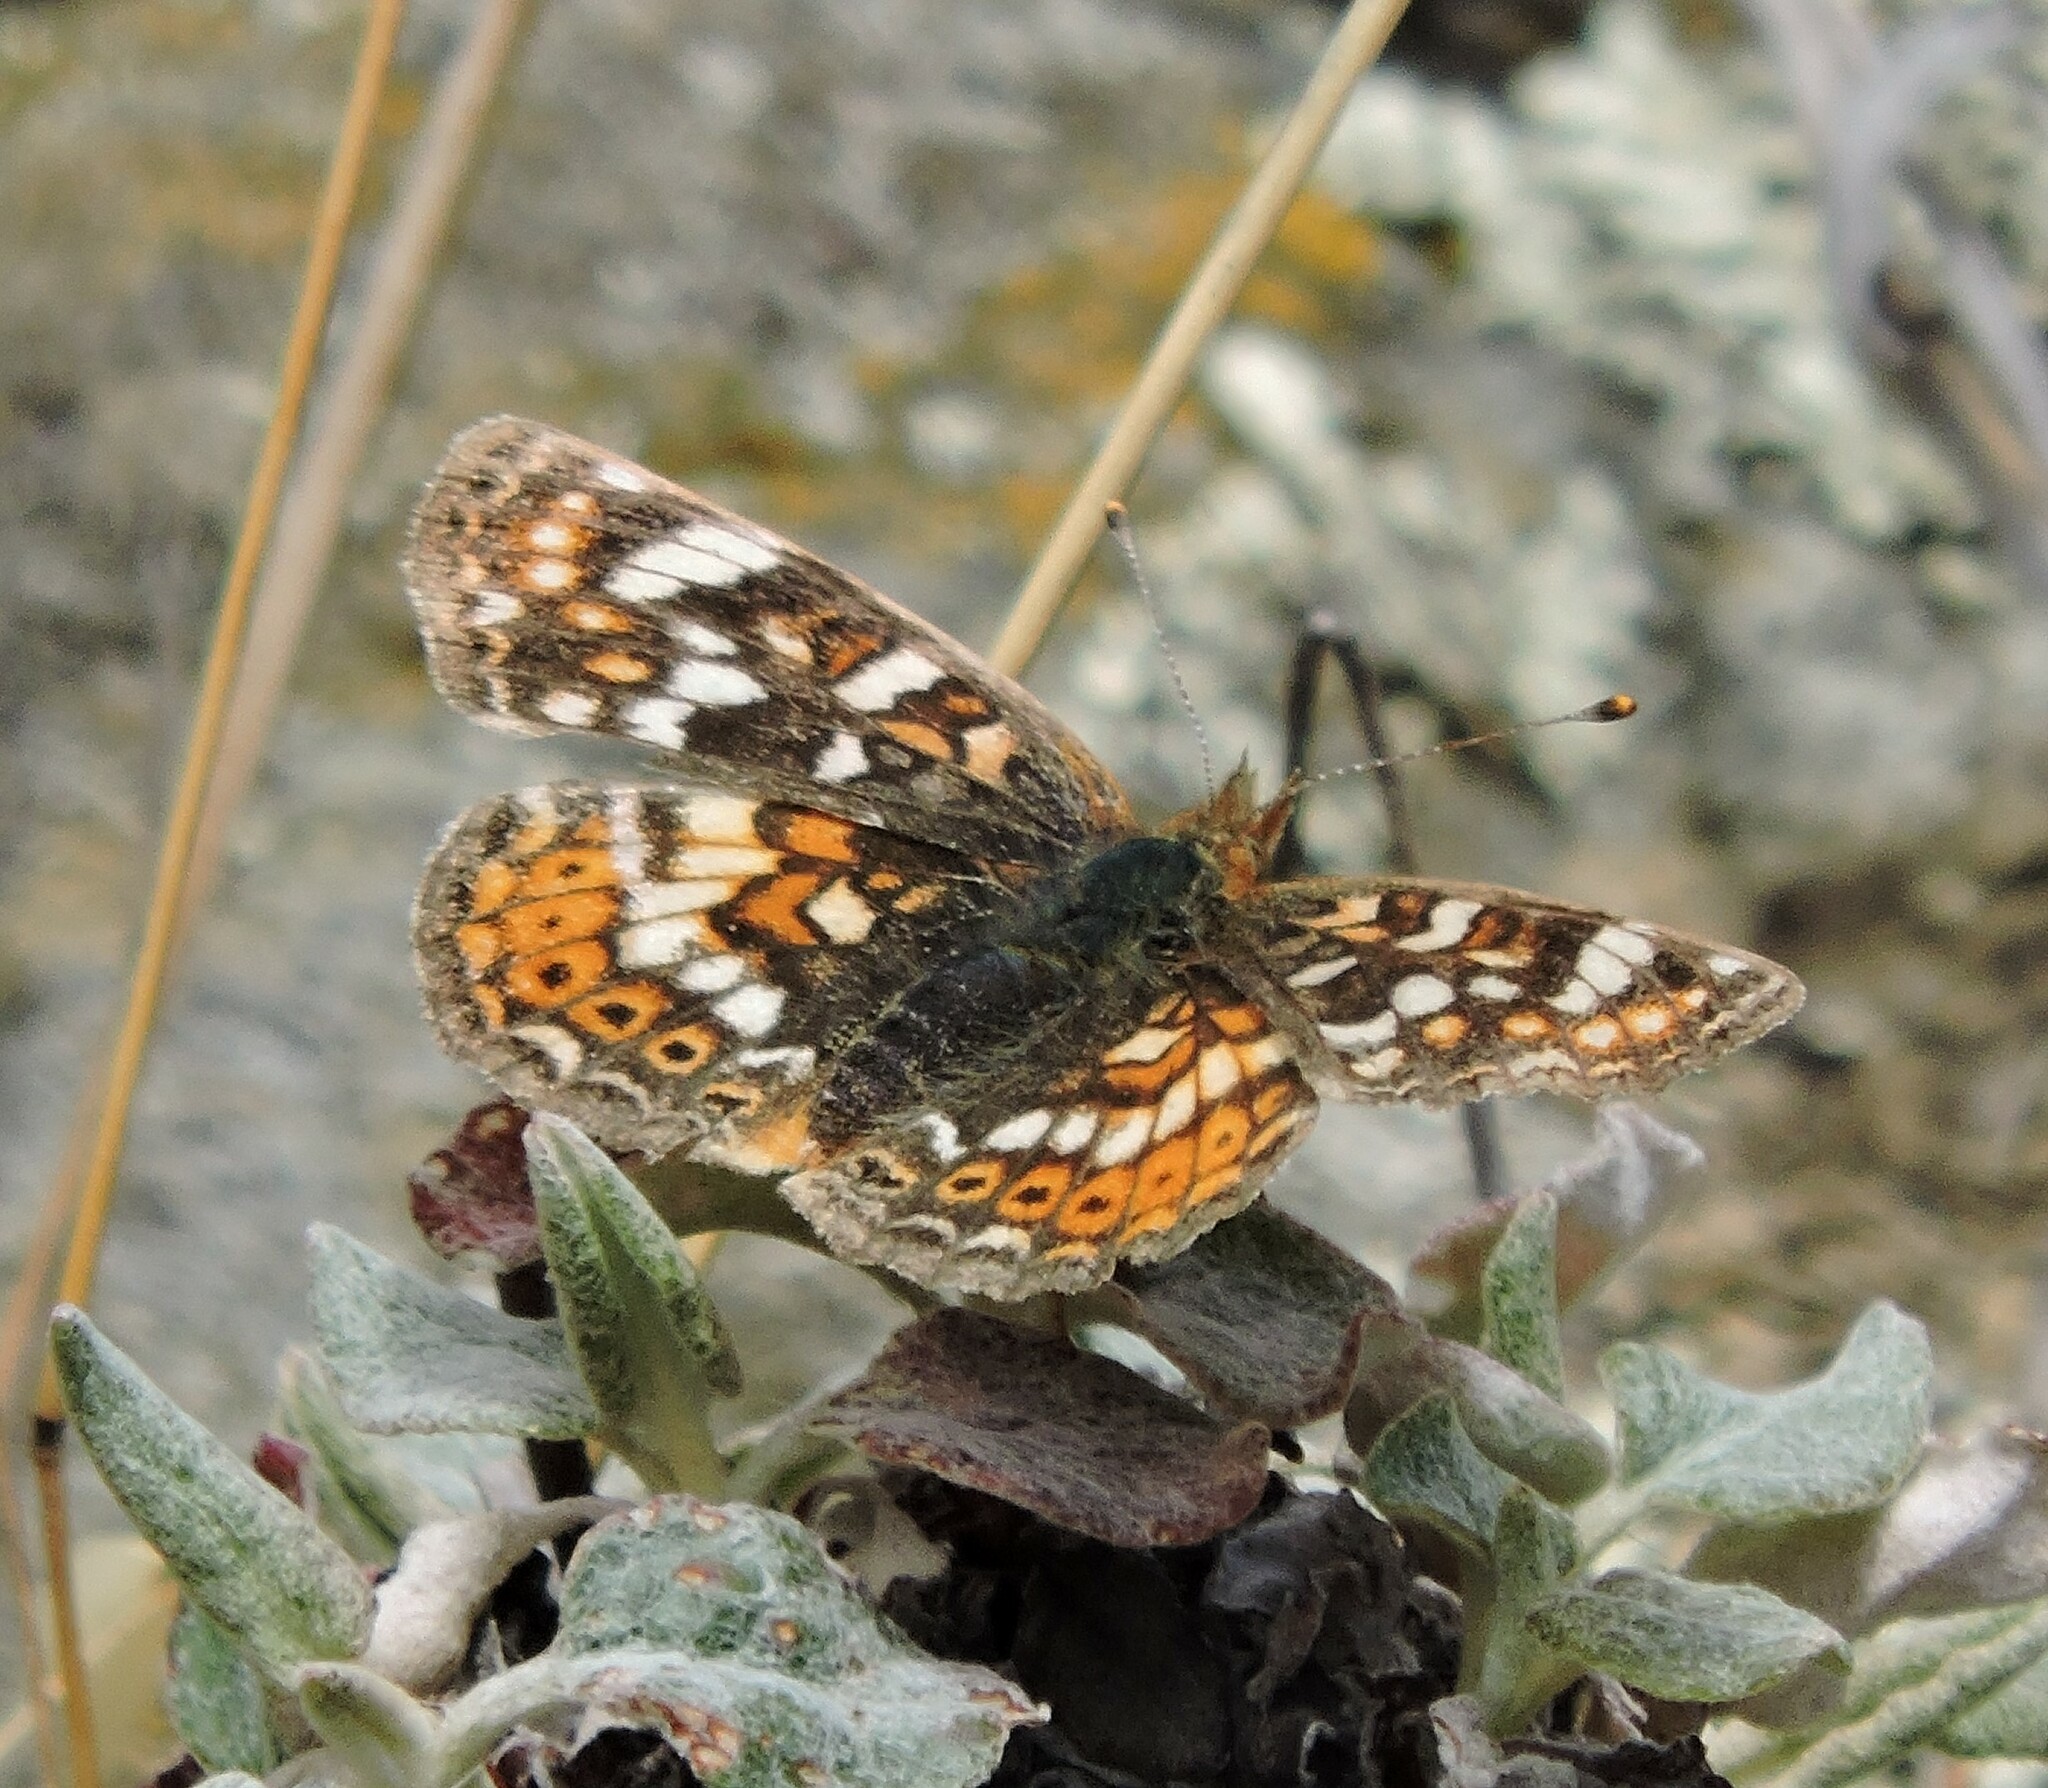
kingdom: Animalia
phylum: Arthropoda
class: Insecta
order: Lepidoptera
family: Nymphalidae
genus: Phyciodes
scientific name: Phyciodes tharos
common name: Pearl crescent
